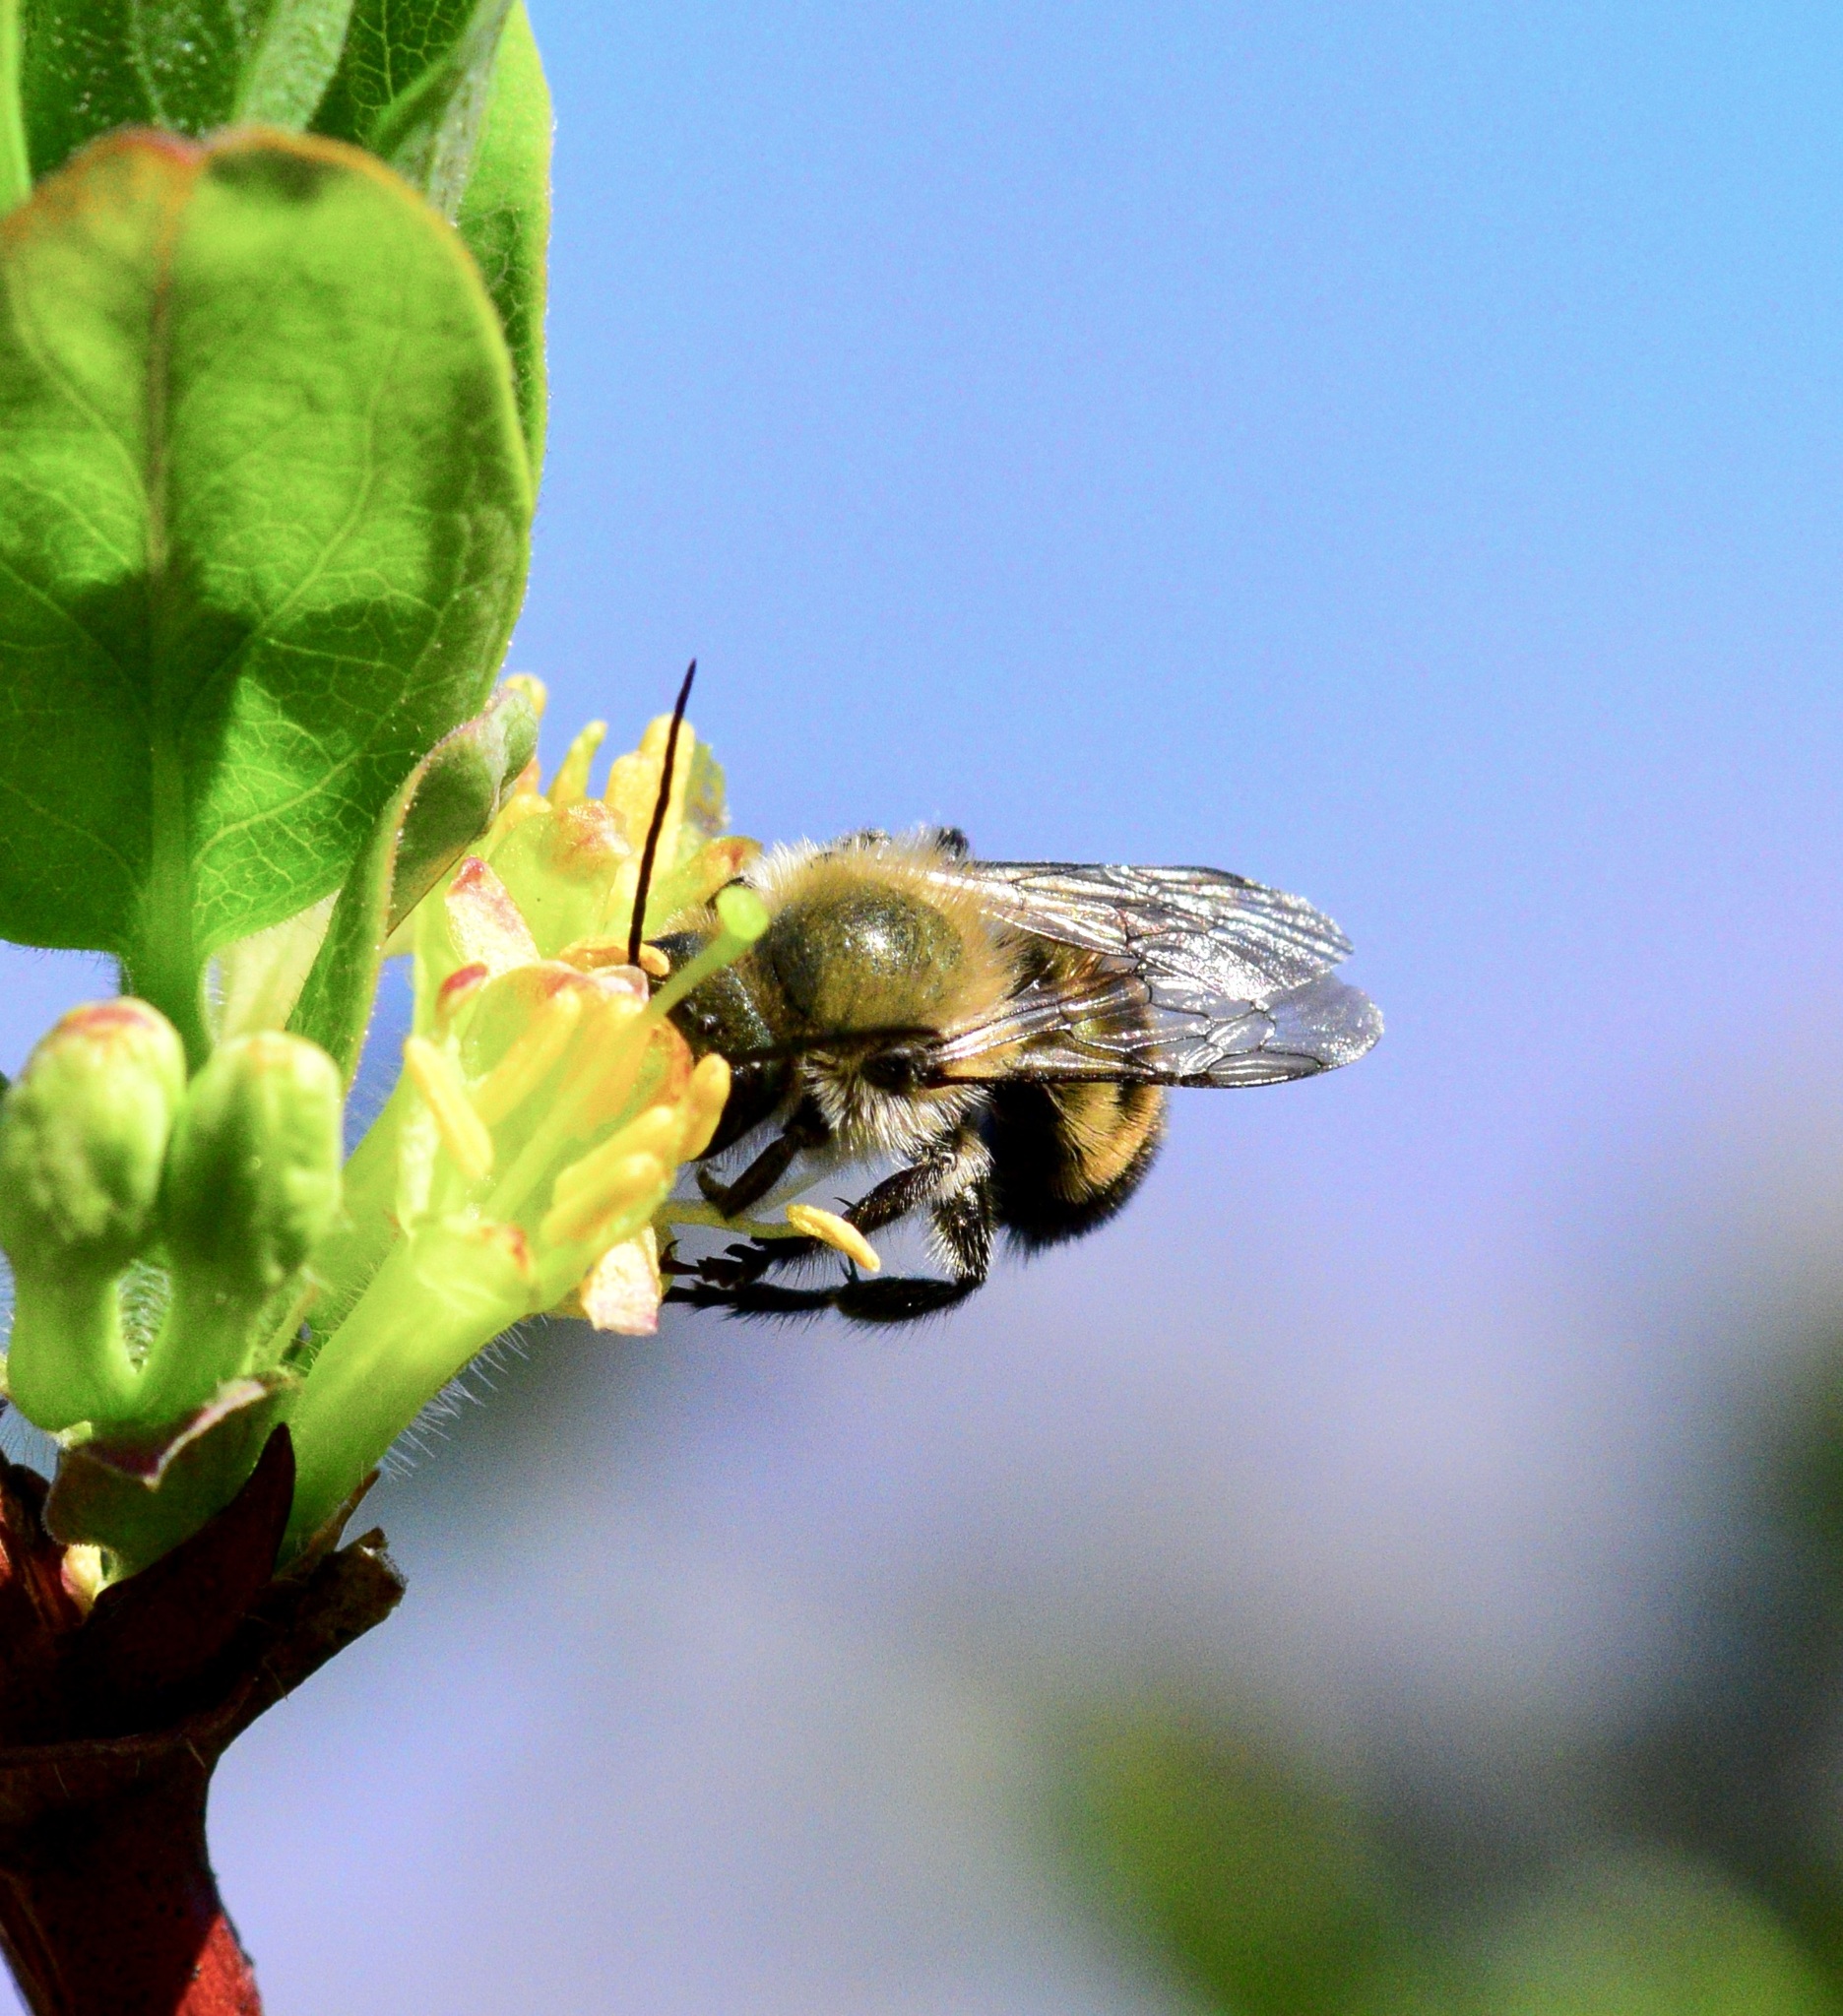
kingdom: Animalia
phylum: Arthropoda
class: Insecta
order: Hymenoptera
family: Megachilidae
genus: Osmia
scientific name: Osmia bucephala
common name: Bufflehead mason bee
